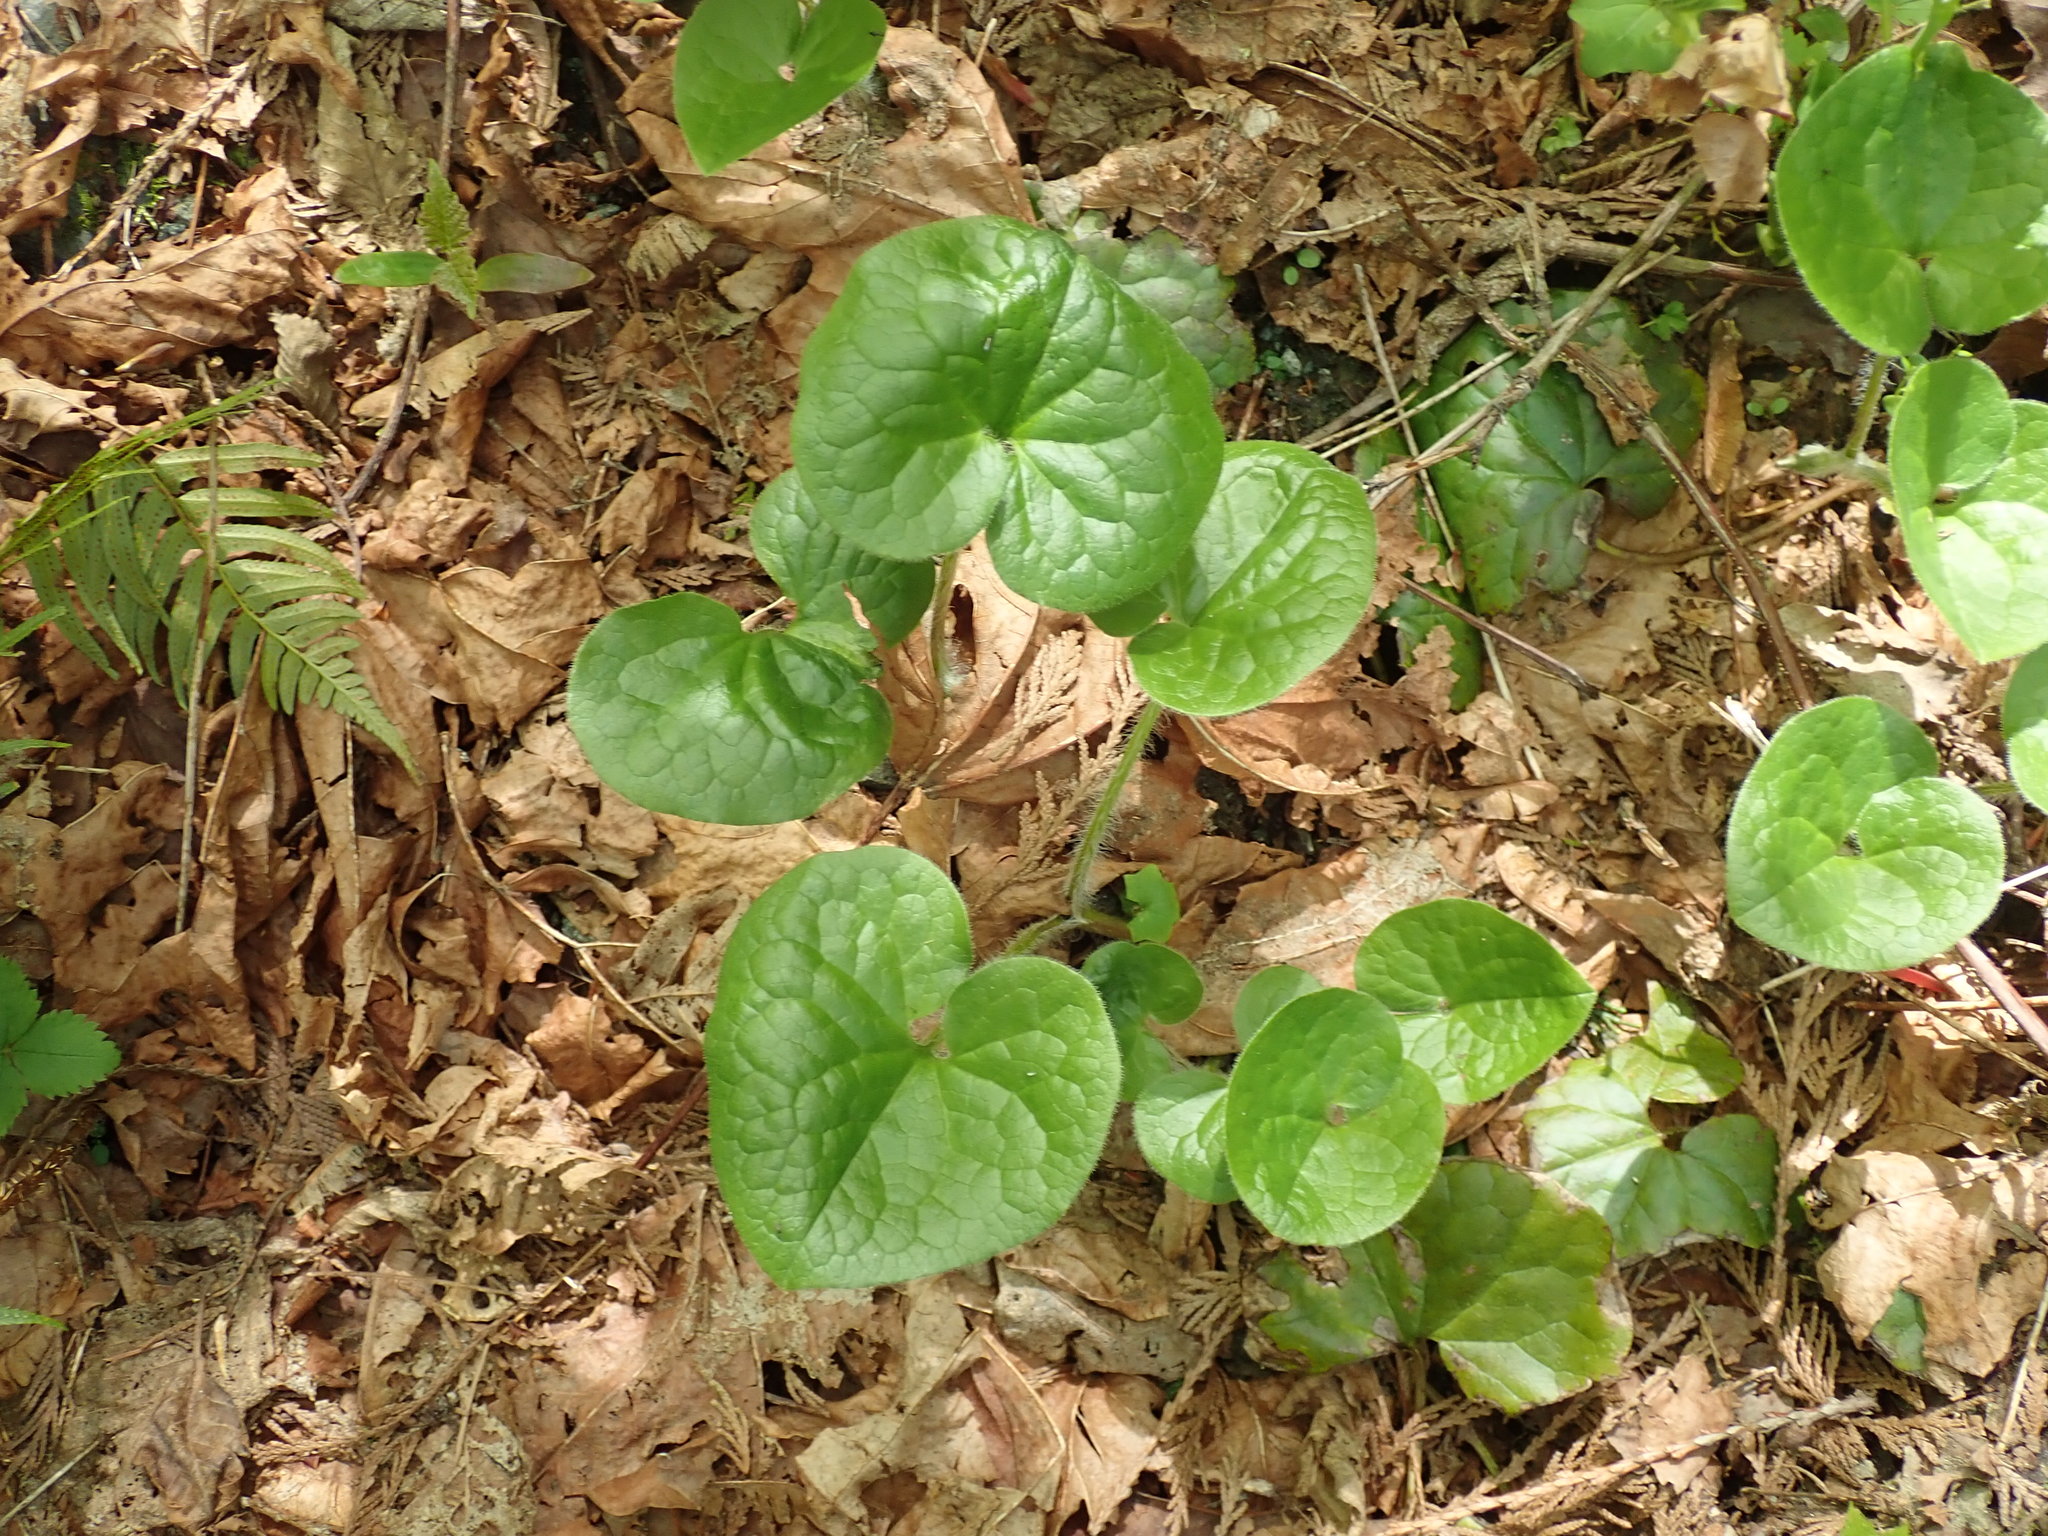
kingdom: Plantae
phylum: Tracheophyta
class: Magnoliopsida
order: Piperales
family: Aristolochiaceae
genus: Asarum
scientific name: Asarum caudatum
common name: Wild ginger
